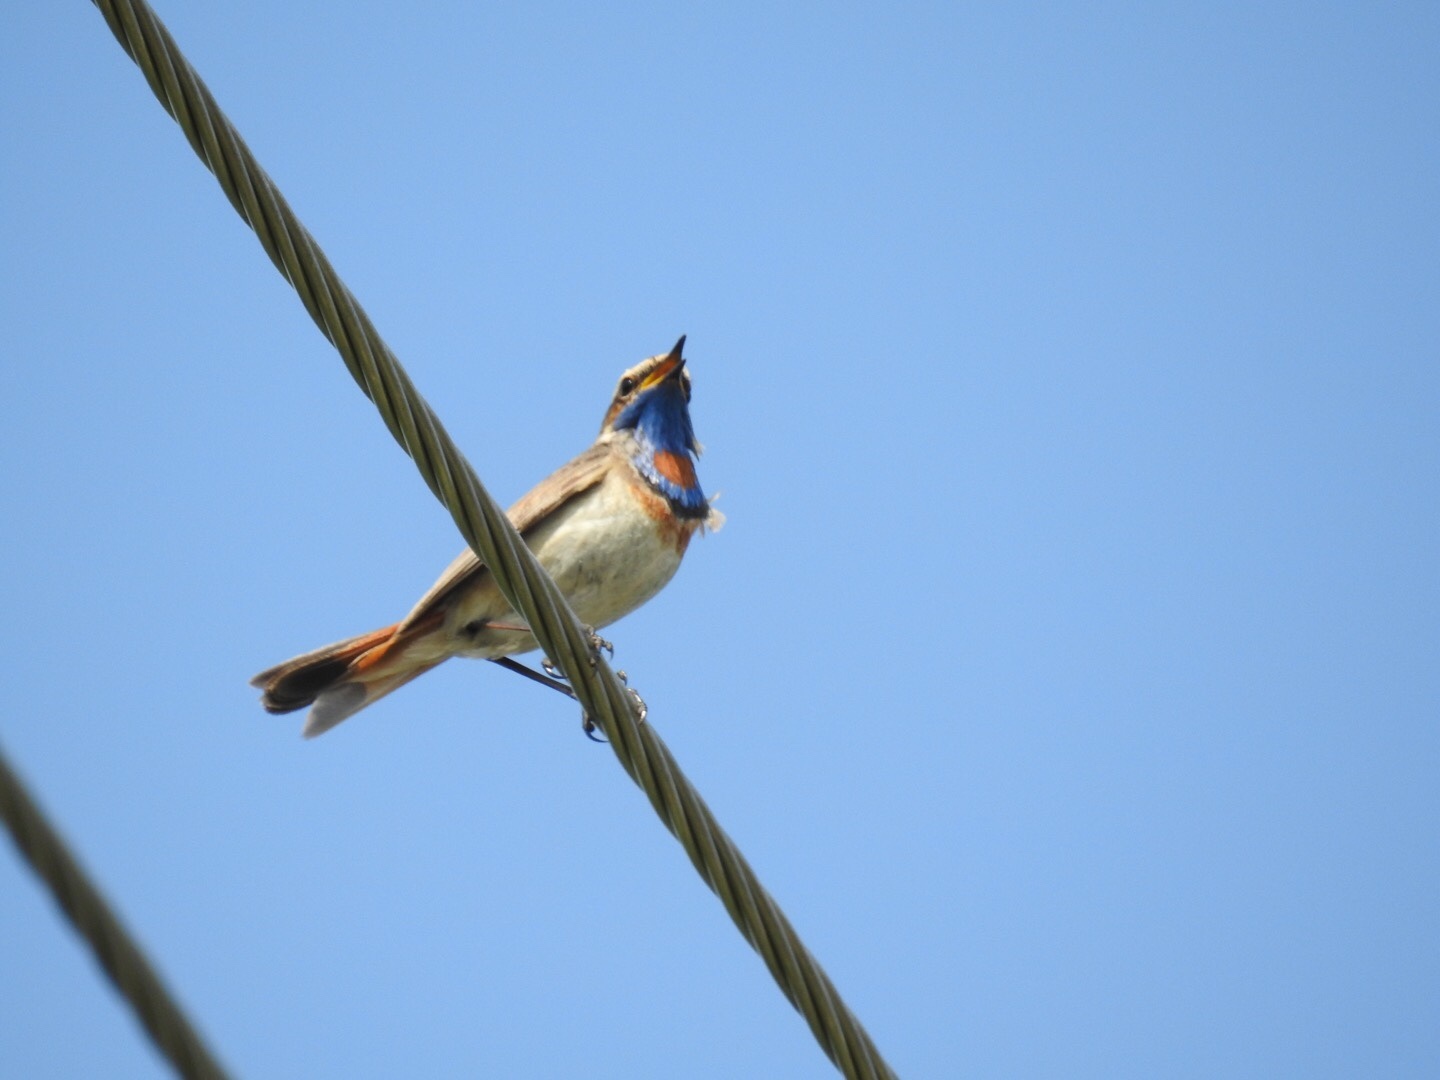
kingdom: Animalia
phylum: Chordata
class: Aves
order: Passeriformes
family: Muscicapidae
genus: Luscinia
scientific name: Luscinia svecica
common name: Bluethroat
